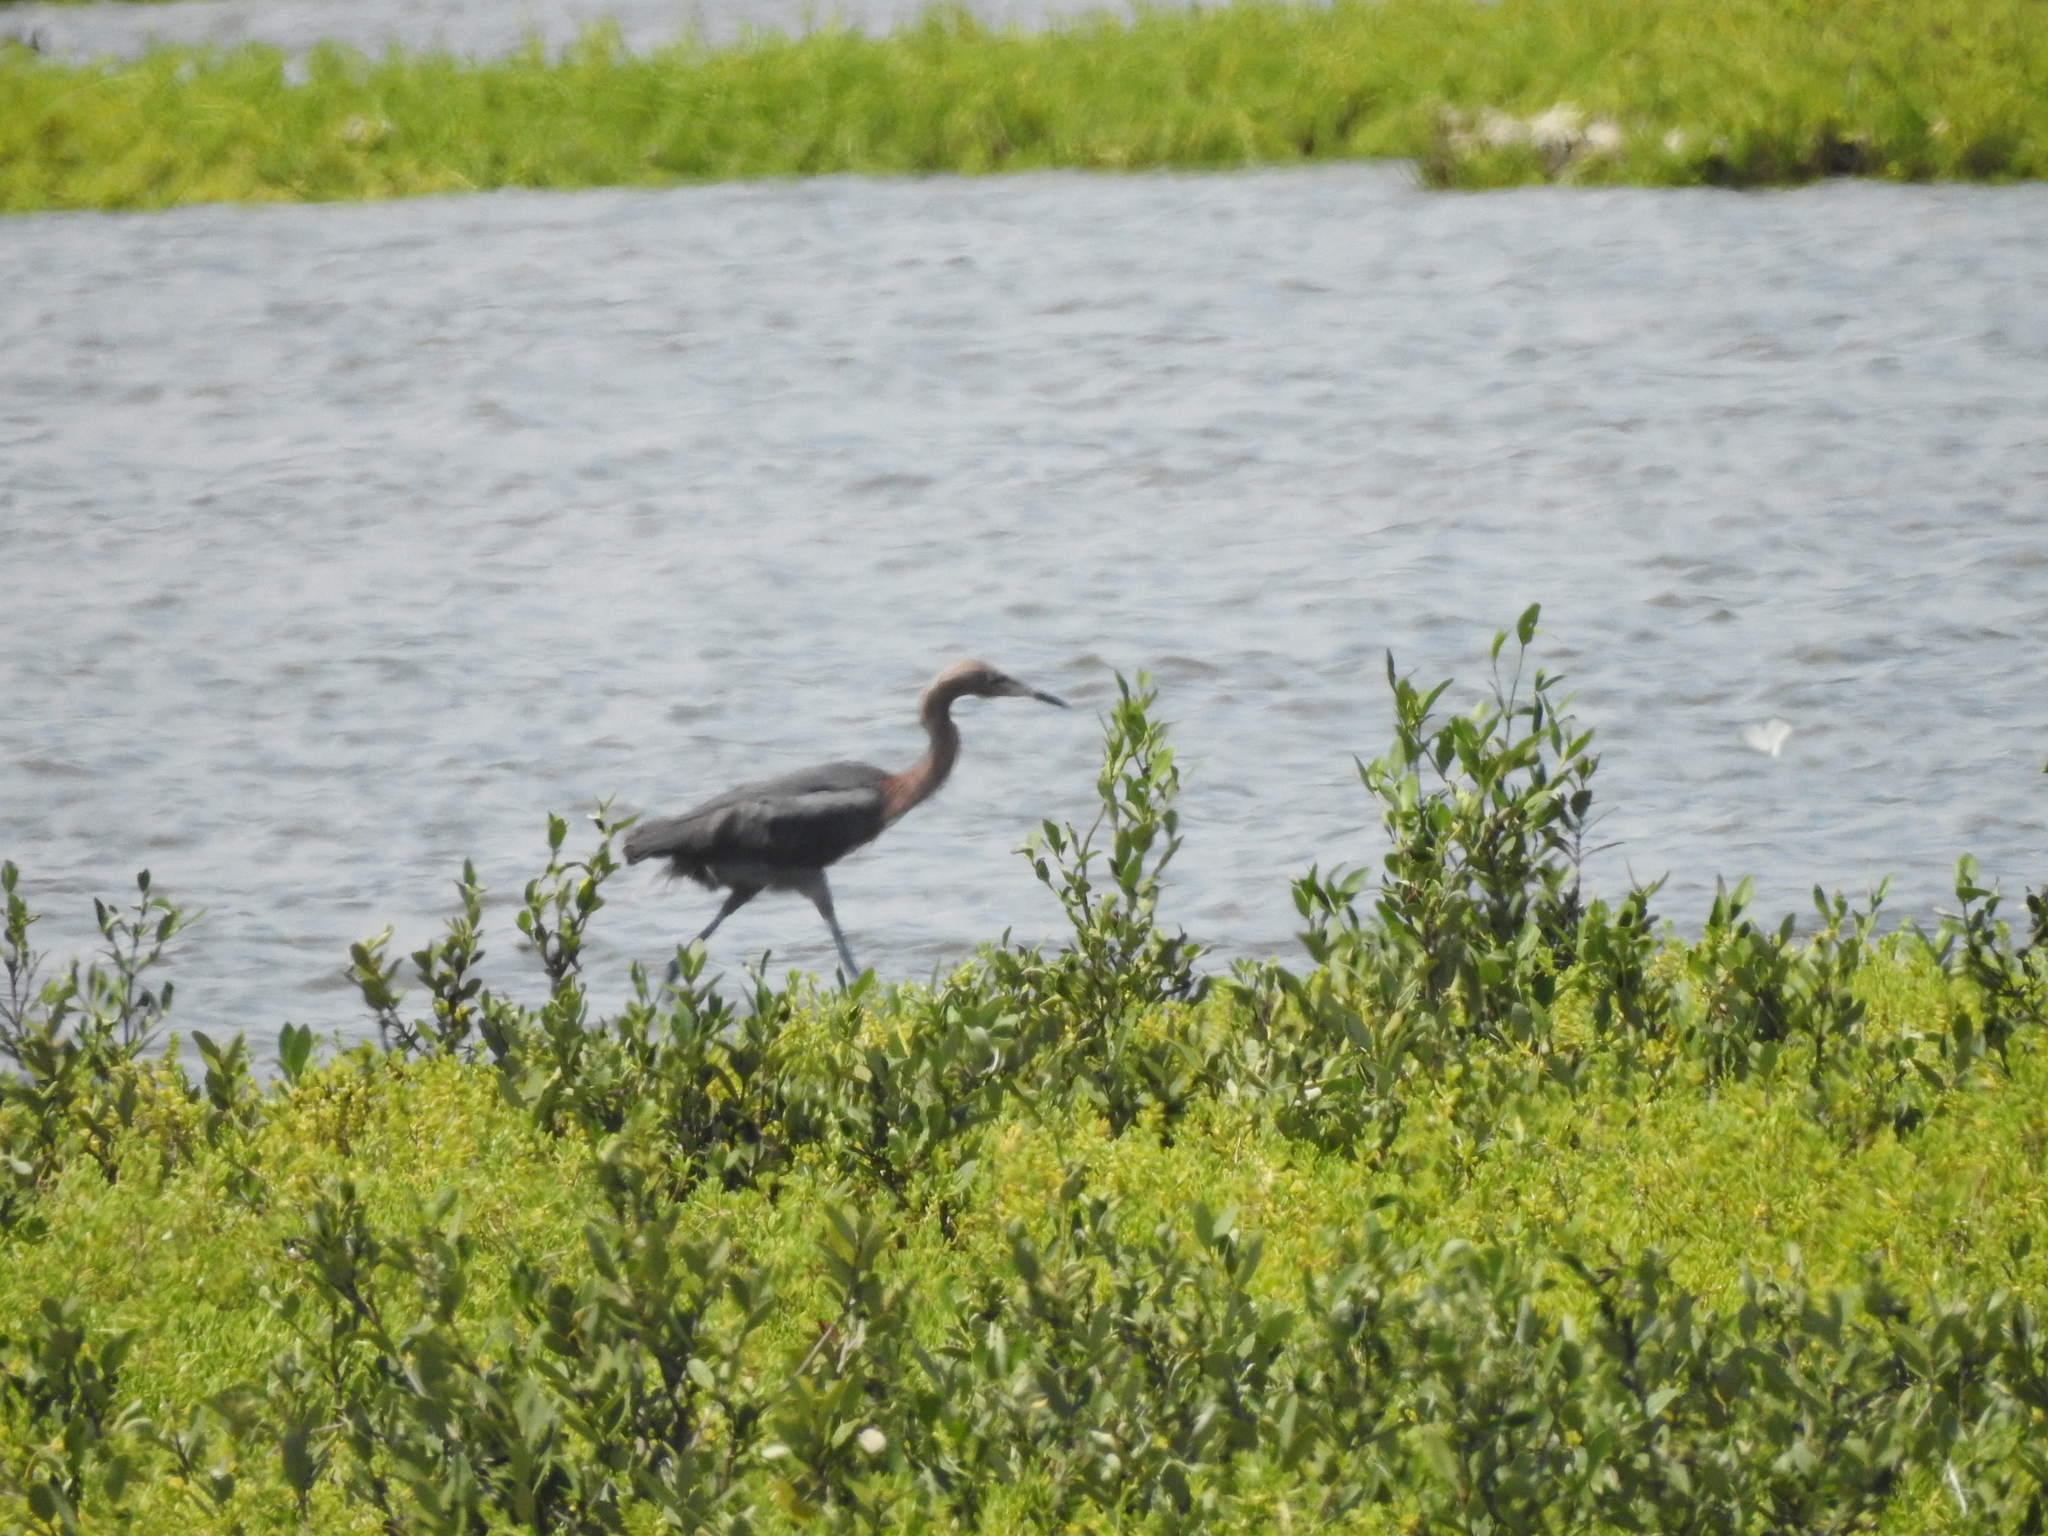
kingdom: Animalia
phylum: Chordata
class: Aves
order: Pelecaniformes
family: Ardeidae
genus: Egretta
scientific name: Egretta rufescens
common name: Reddish egret
